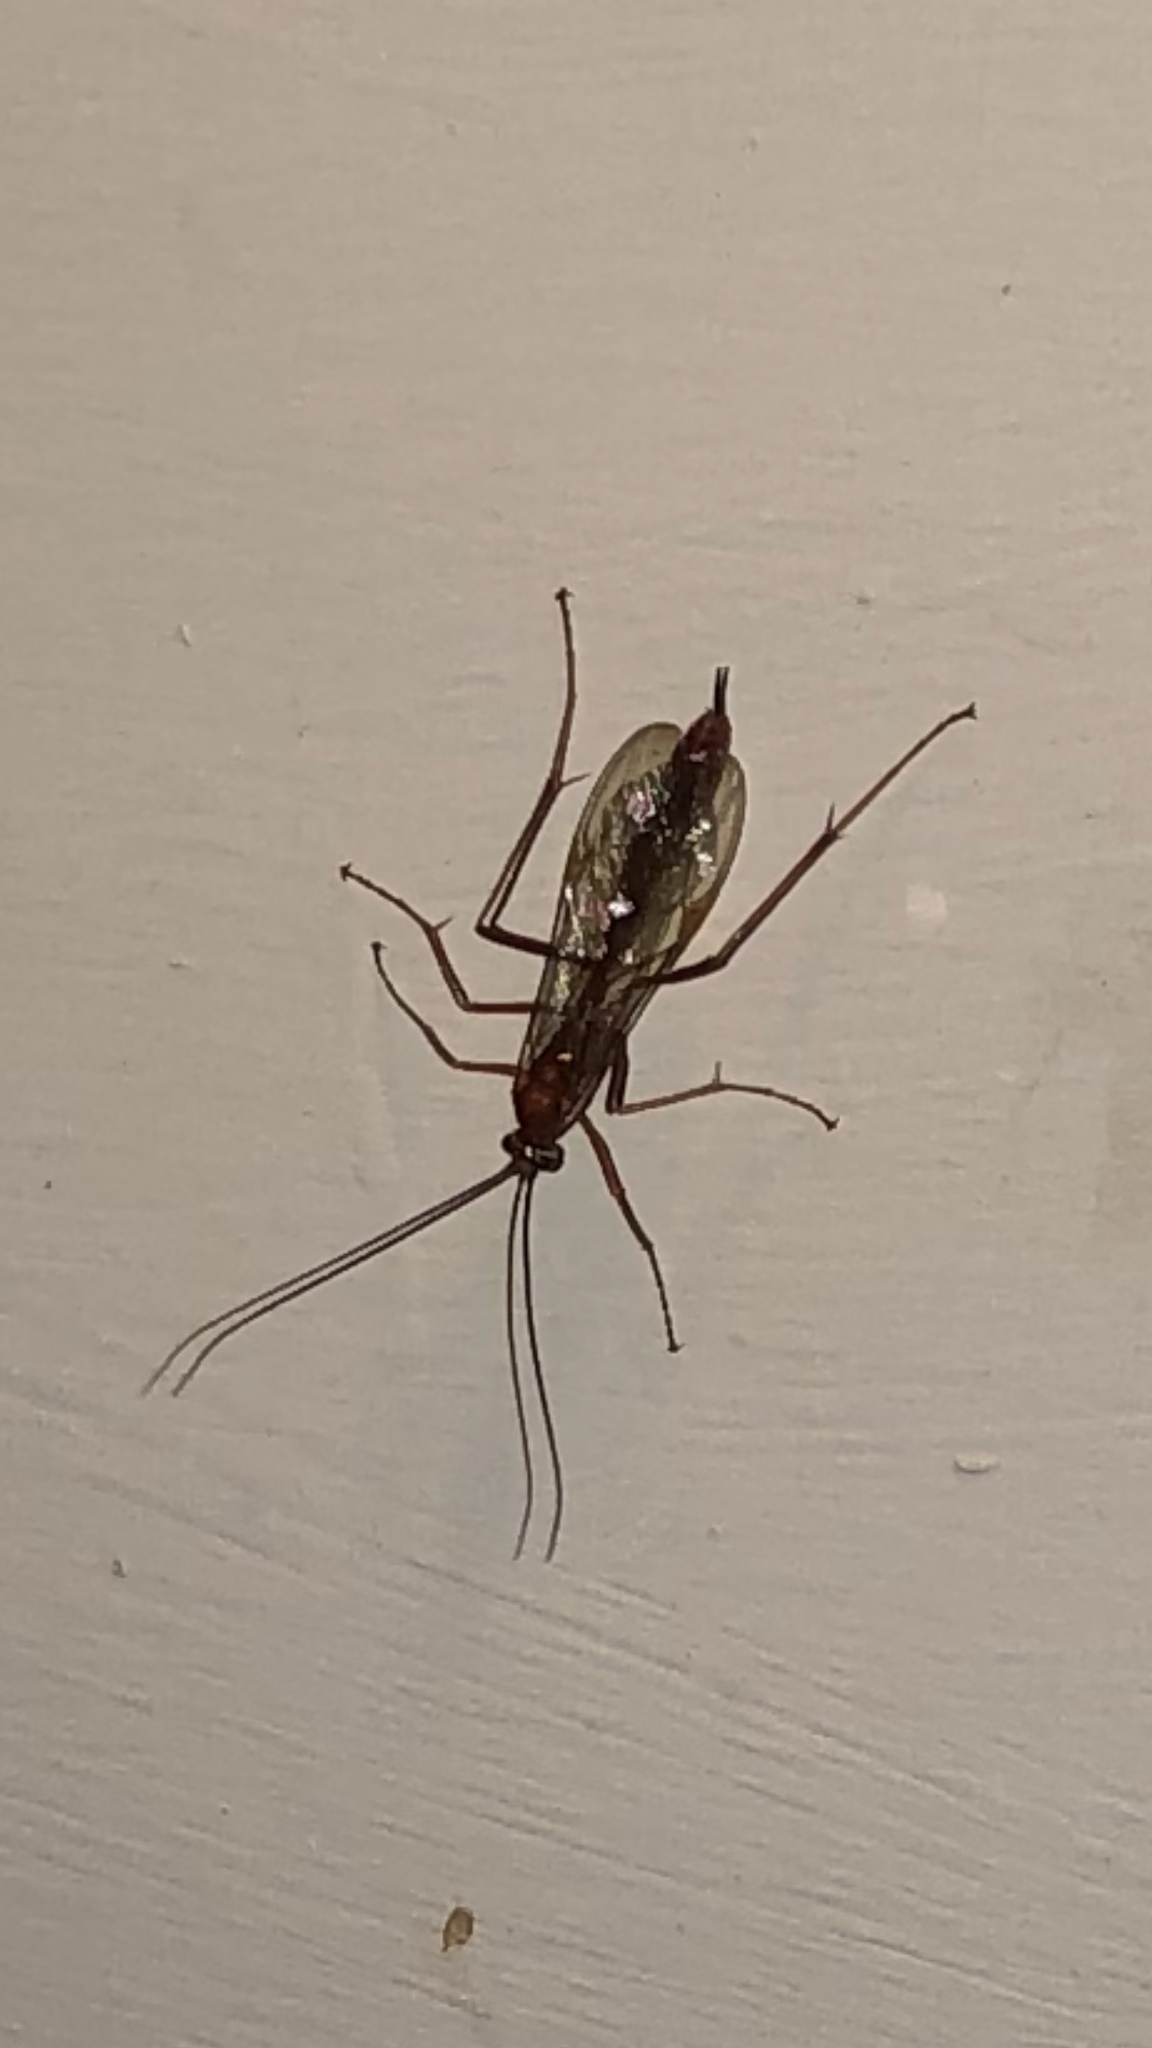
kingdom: Animalia
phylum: Arthropoda
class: Insecta
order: Hymenoptera
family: Ichneumonidae
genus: Netelia
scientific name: Netelia
